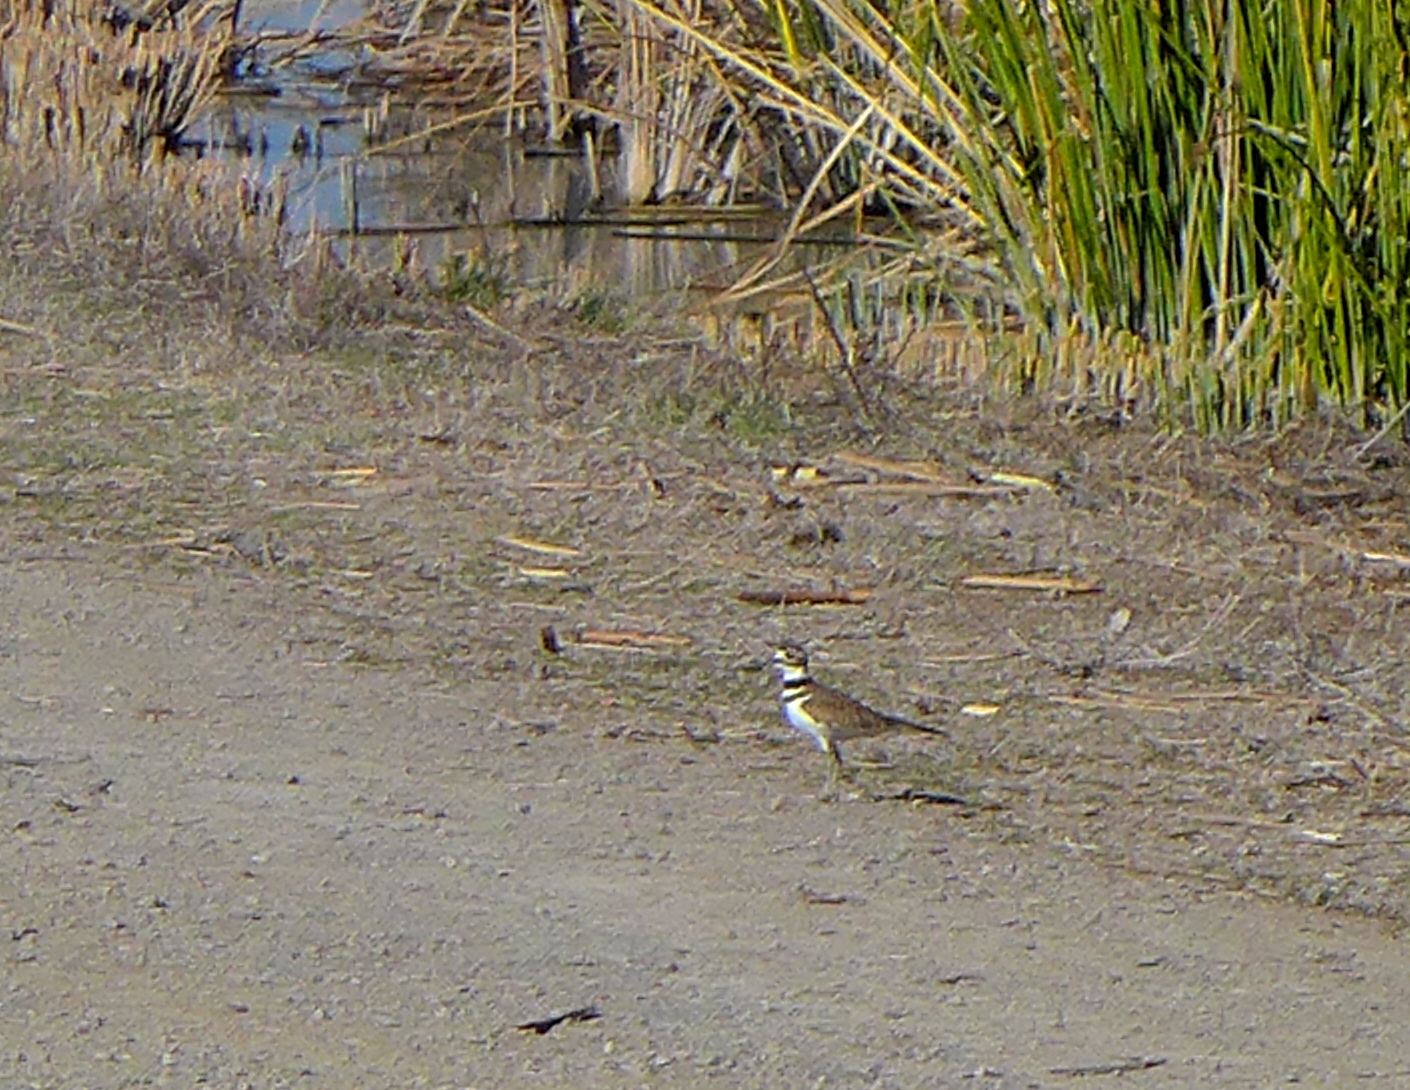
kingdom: Animalia
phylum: Chordata
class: Aves
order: Charadriiformes
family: Charadriidae
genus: Charadrius
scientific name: Charadrius vociferus
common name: Killdeer
